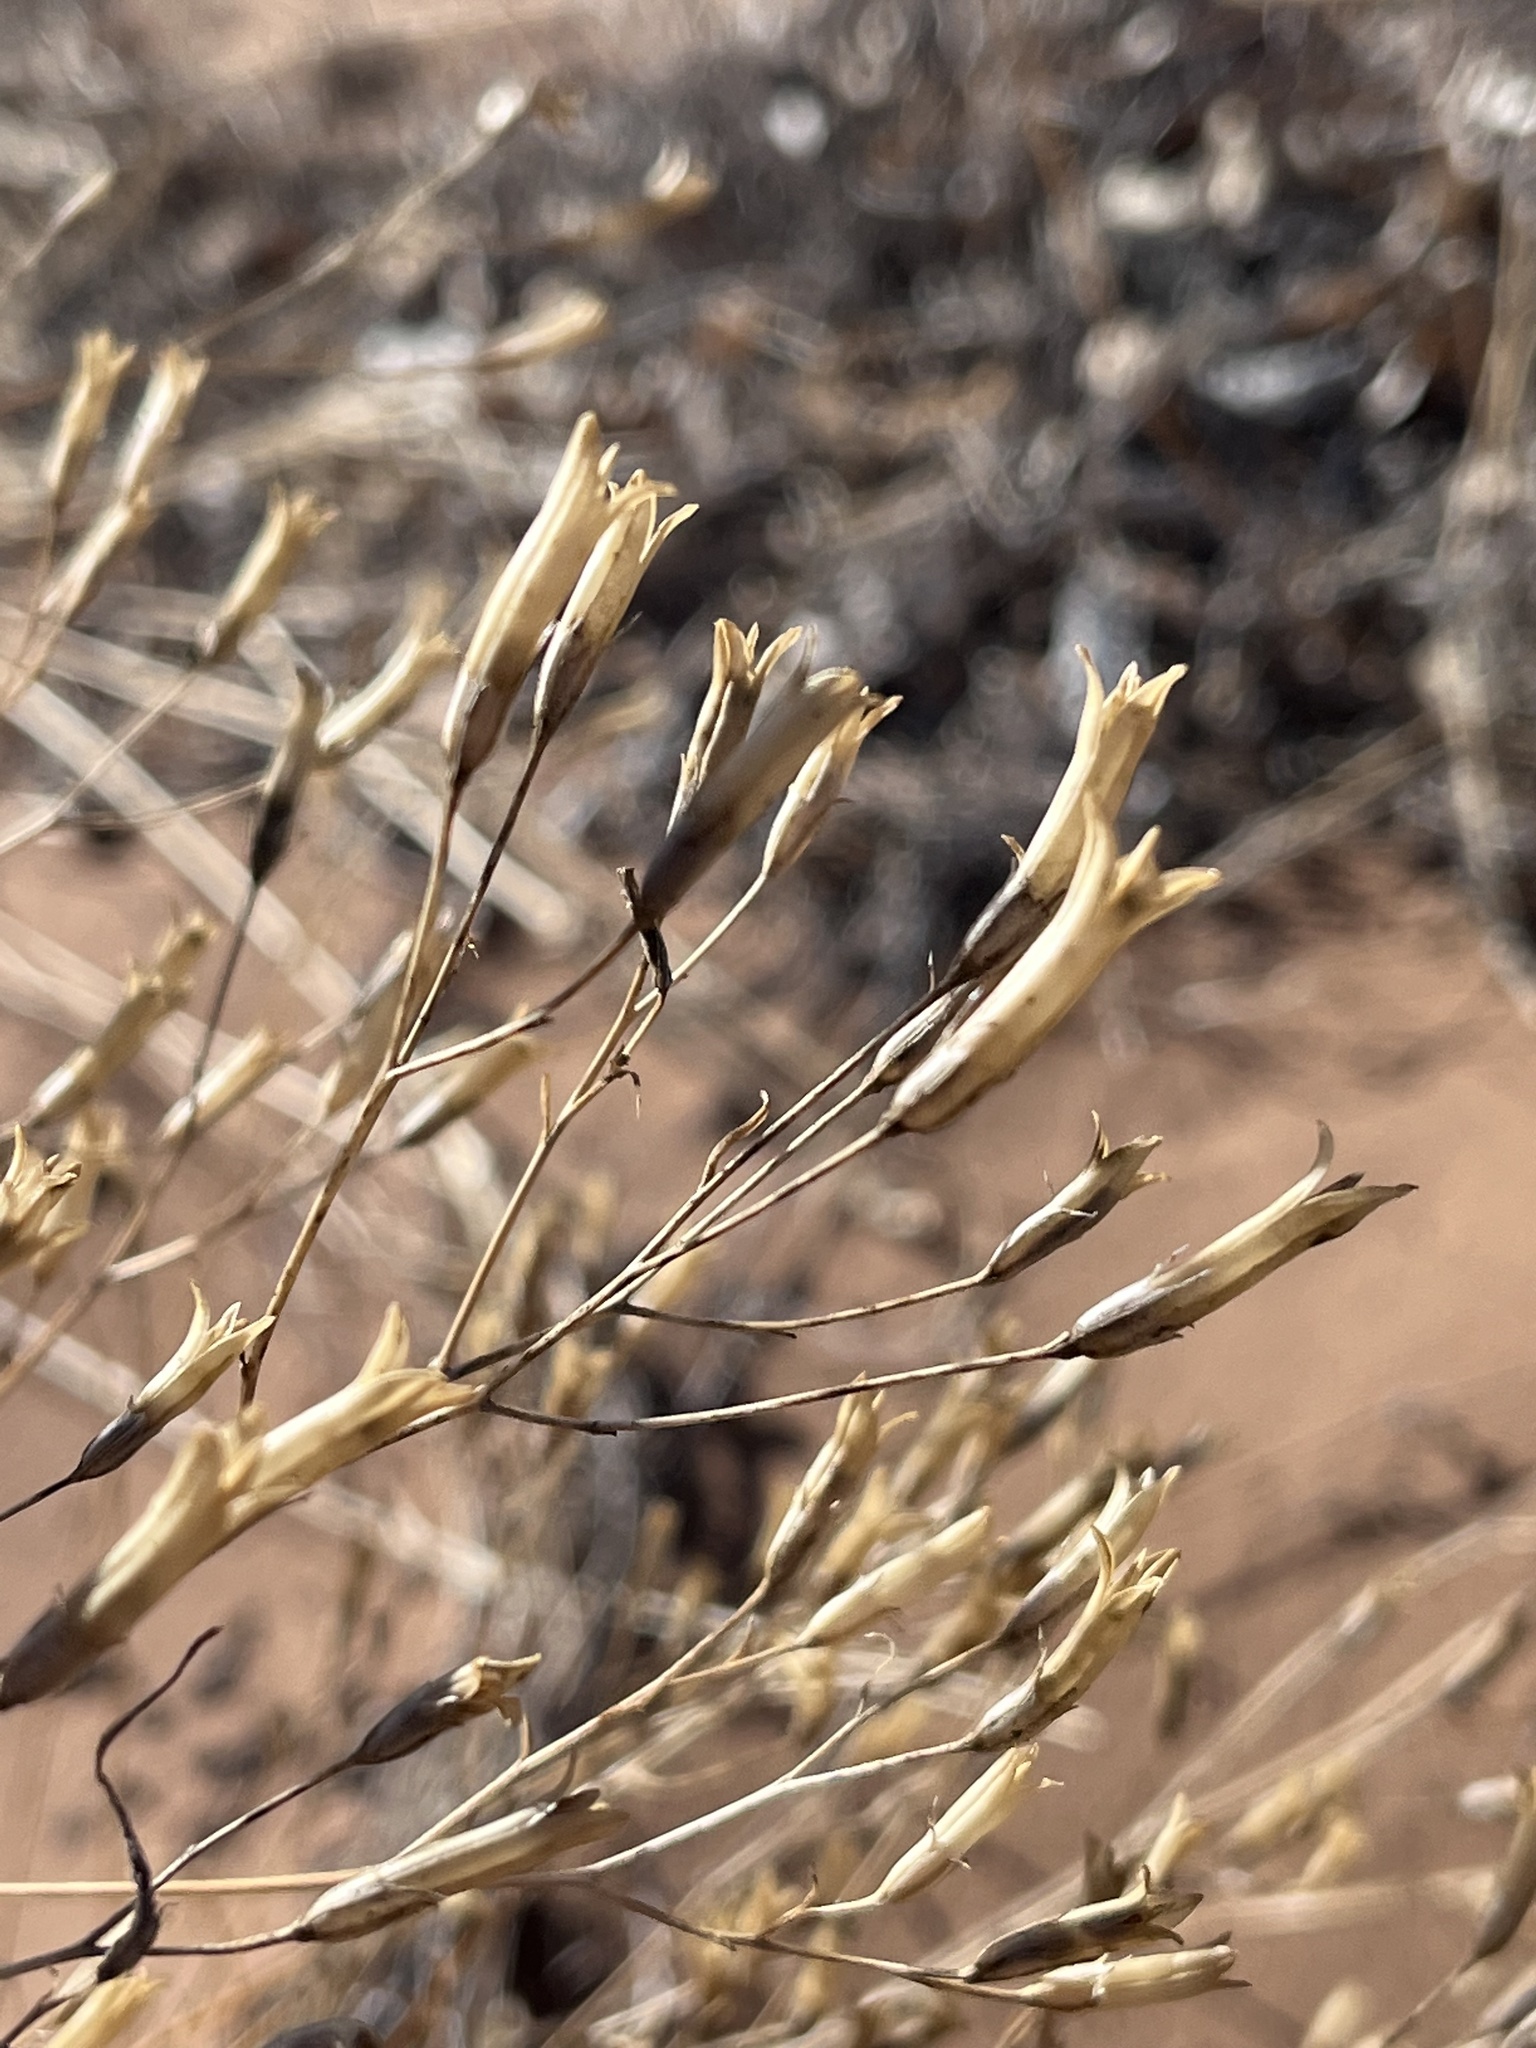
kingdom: Plantae
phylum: Tracheophyta
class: Magnoliopsida
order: Ericales
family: Polemoniaceae
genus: Ipomopsis
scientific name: Ipomopsis longiflora
